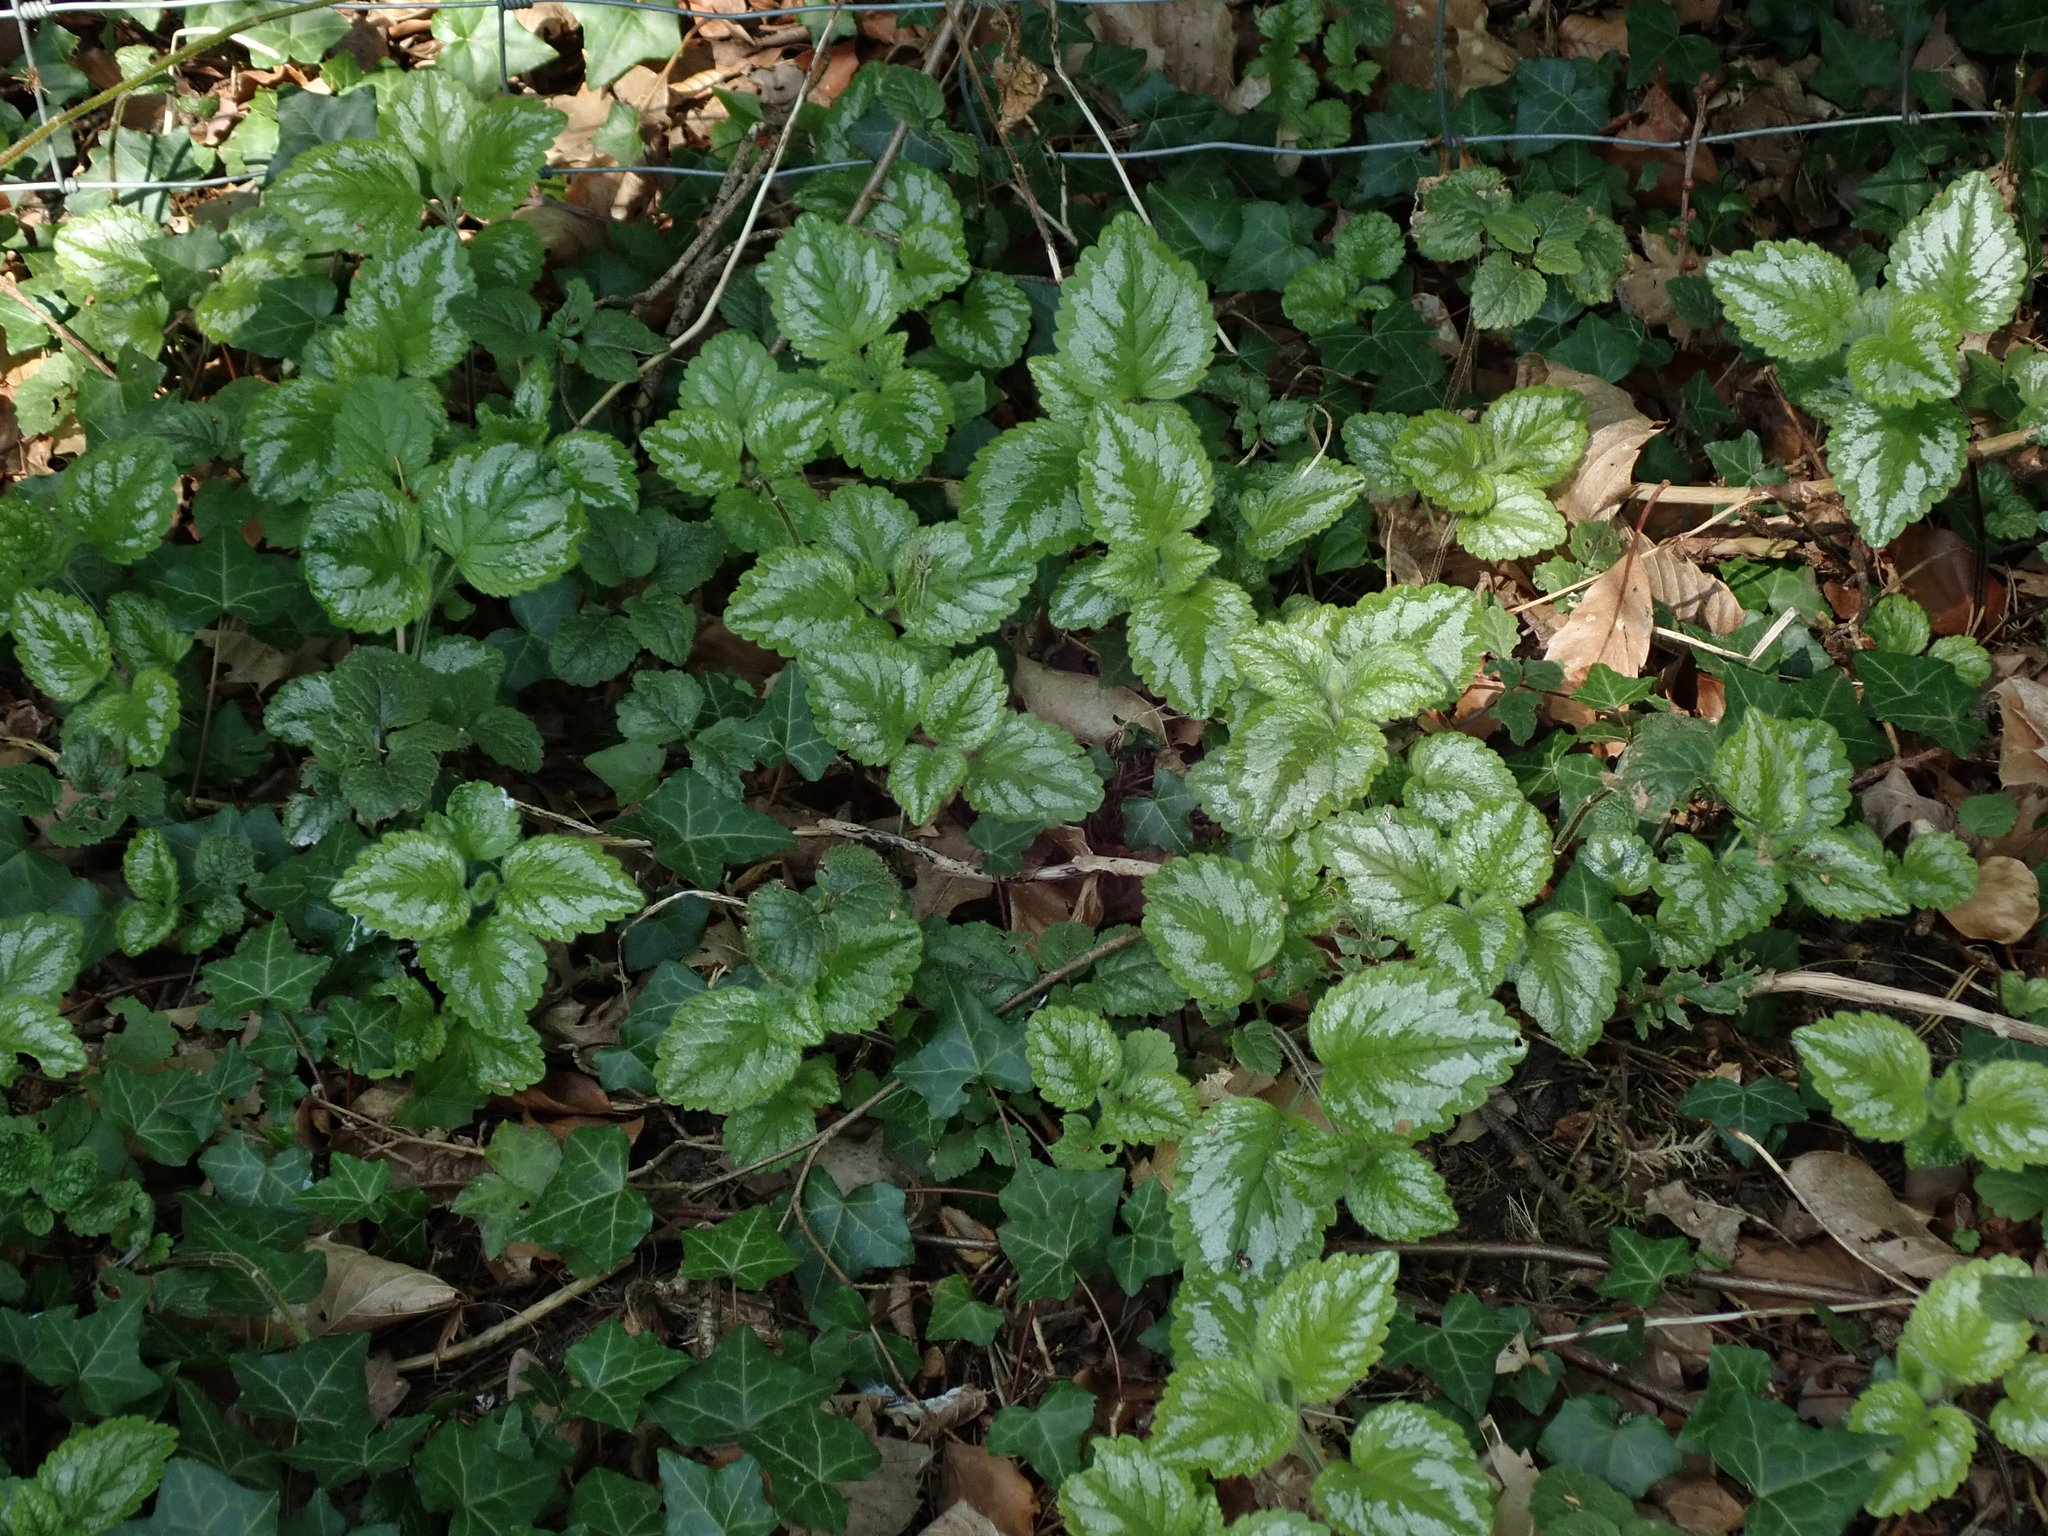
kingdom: Plantae
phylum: Tracheophyta
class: Magnoliopsida
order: Lamiales
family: Lamiaceae
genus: Lamium
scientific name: Lamium galeobdolon
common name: Yellow archangel
